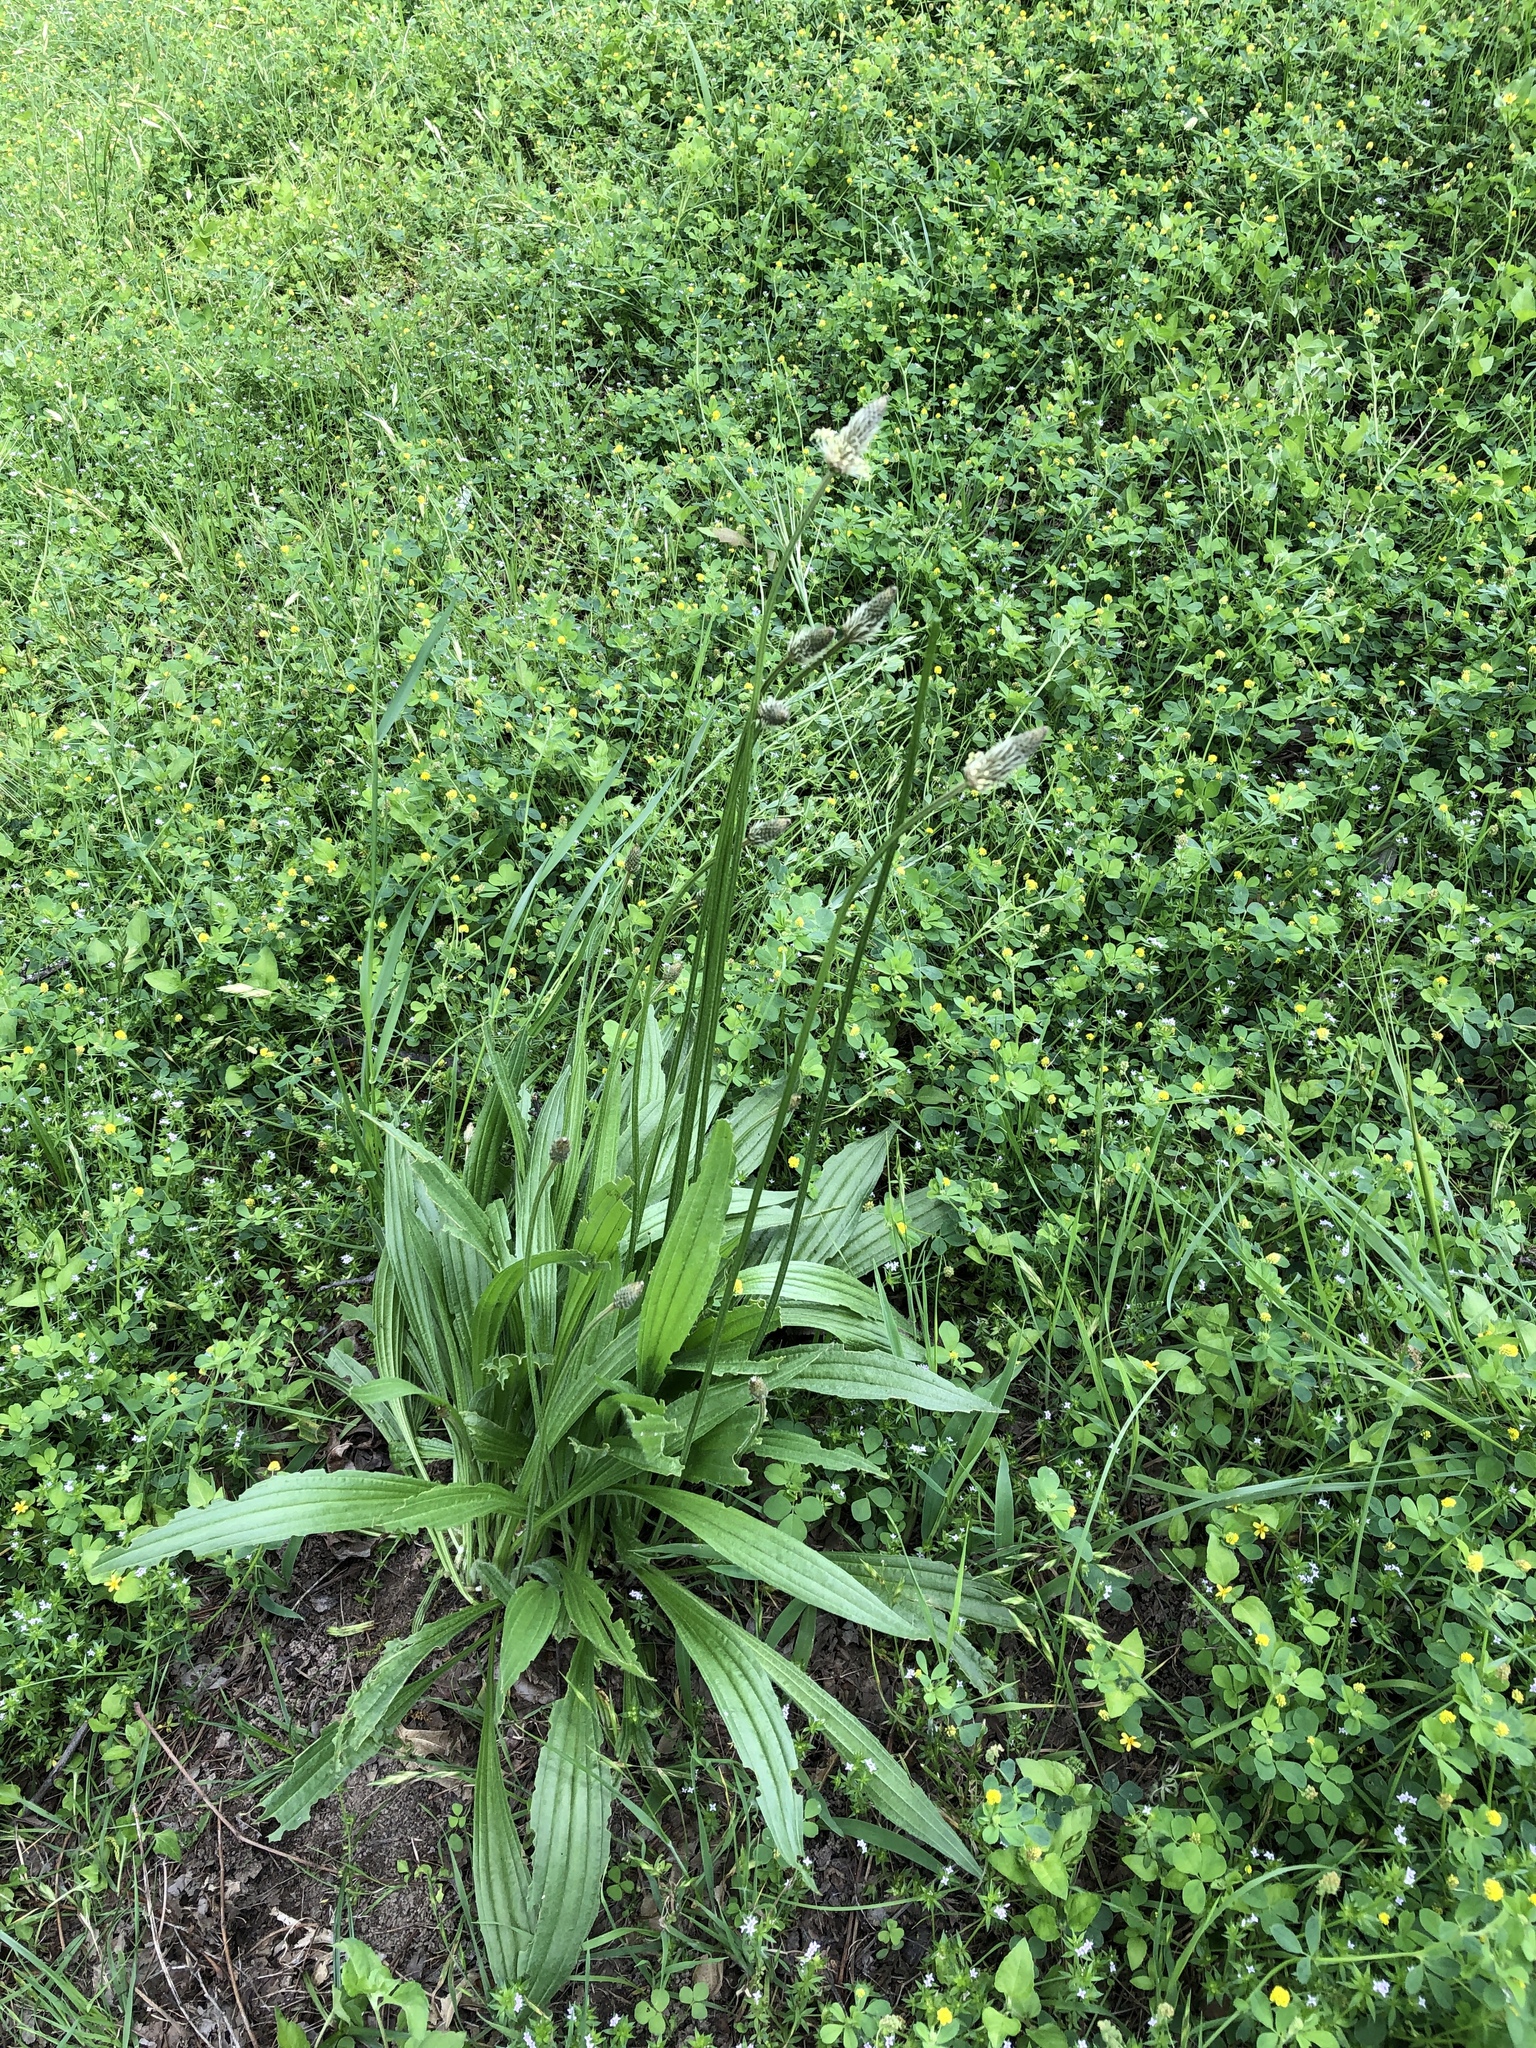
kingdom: Plantae
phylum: Tracheophyta
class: Magnoliopsida
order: Lamiales
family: Plantaginaceae
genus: Plantago
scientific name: Plantago lanceolata
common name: Ribwort plantain
